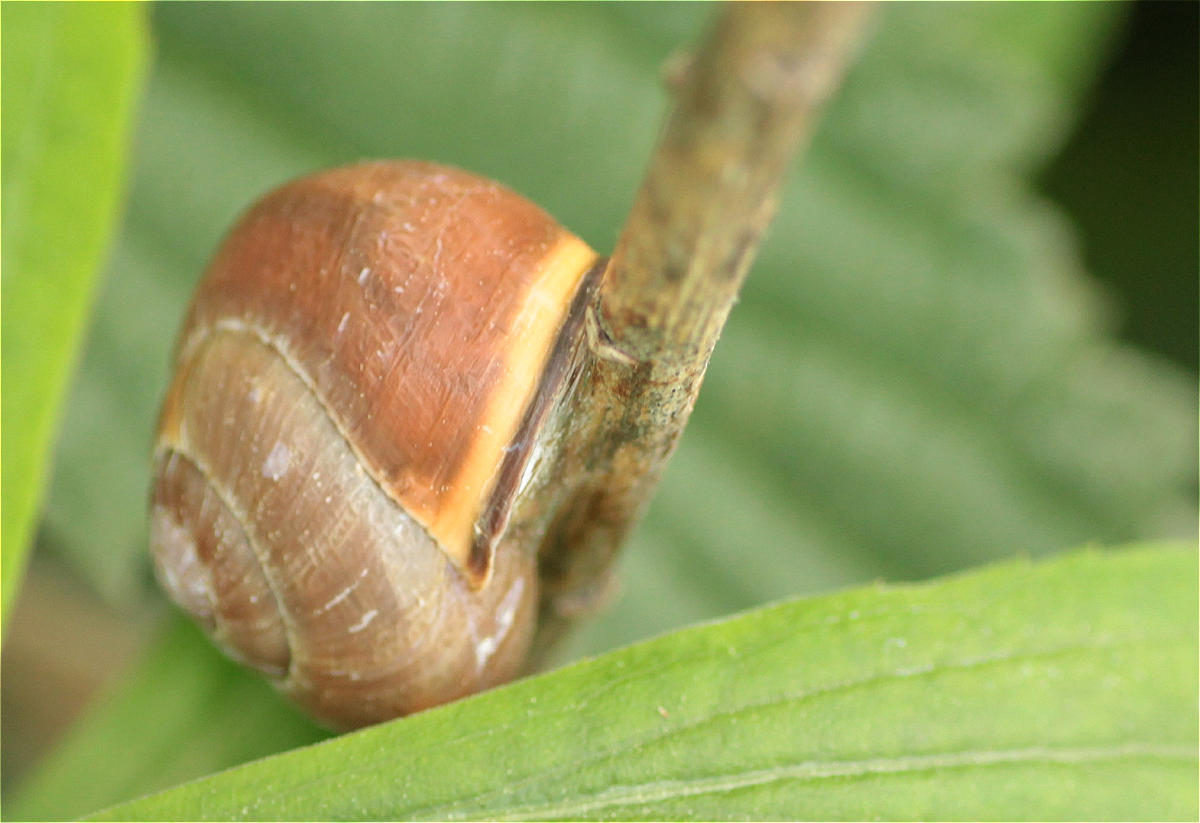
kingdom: Animalia
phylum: Mollusca
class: Gastropoda
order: Stylommatophora
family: Helicidae
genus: Cepaea
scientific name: Cepaea nemoralis
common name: Grovesnail
